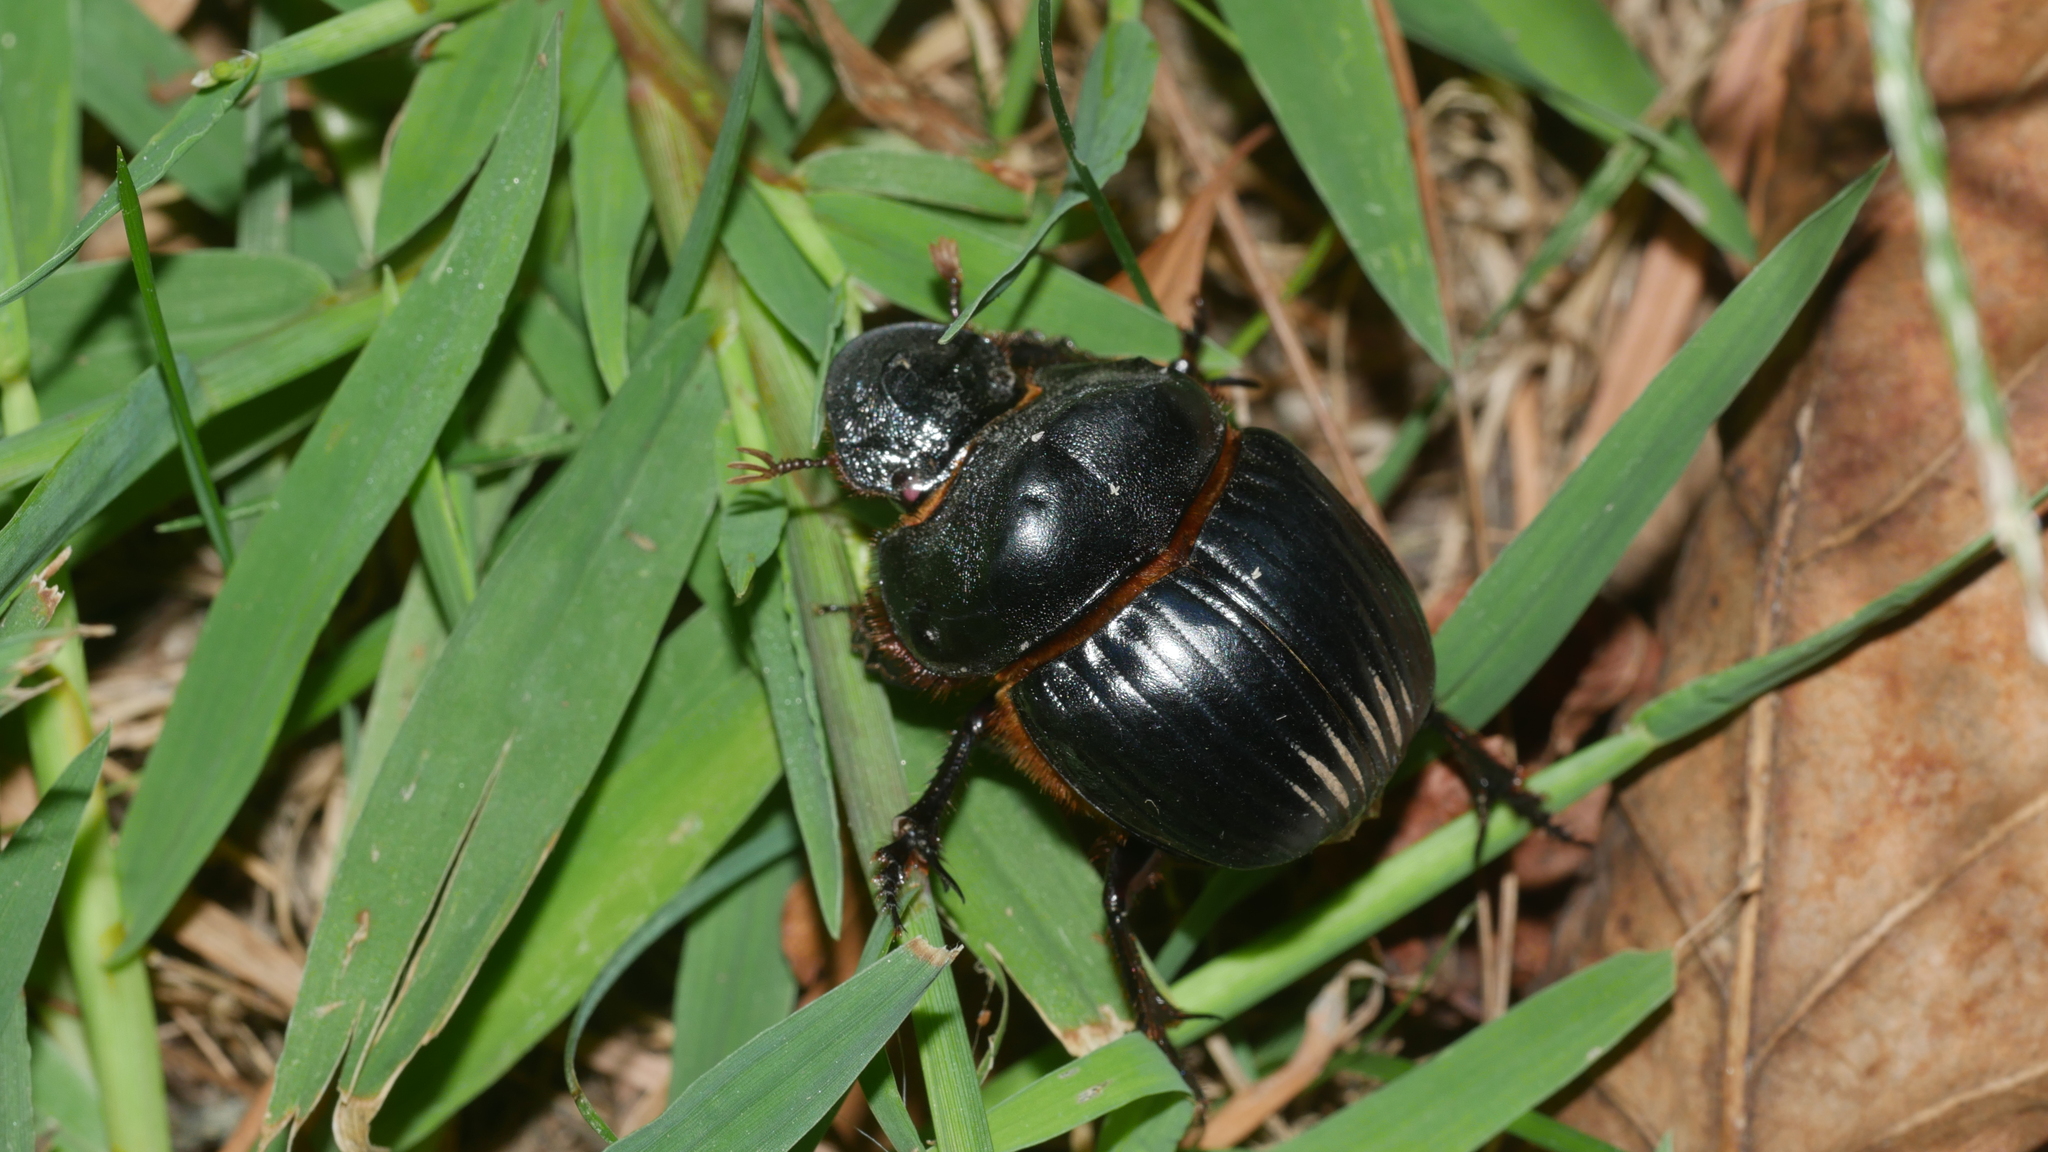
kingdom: Animalia
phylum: Arthropoda
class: Insecta
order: Coleoptera
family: Scarabaeidae
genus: Dichotomius
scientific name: Dichotomius carolinus
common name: Carolina copris
